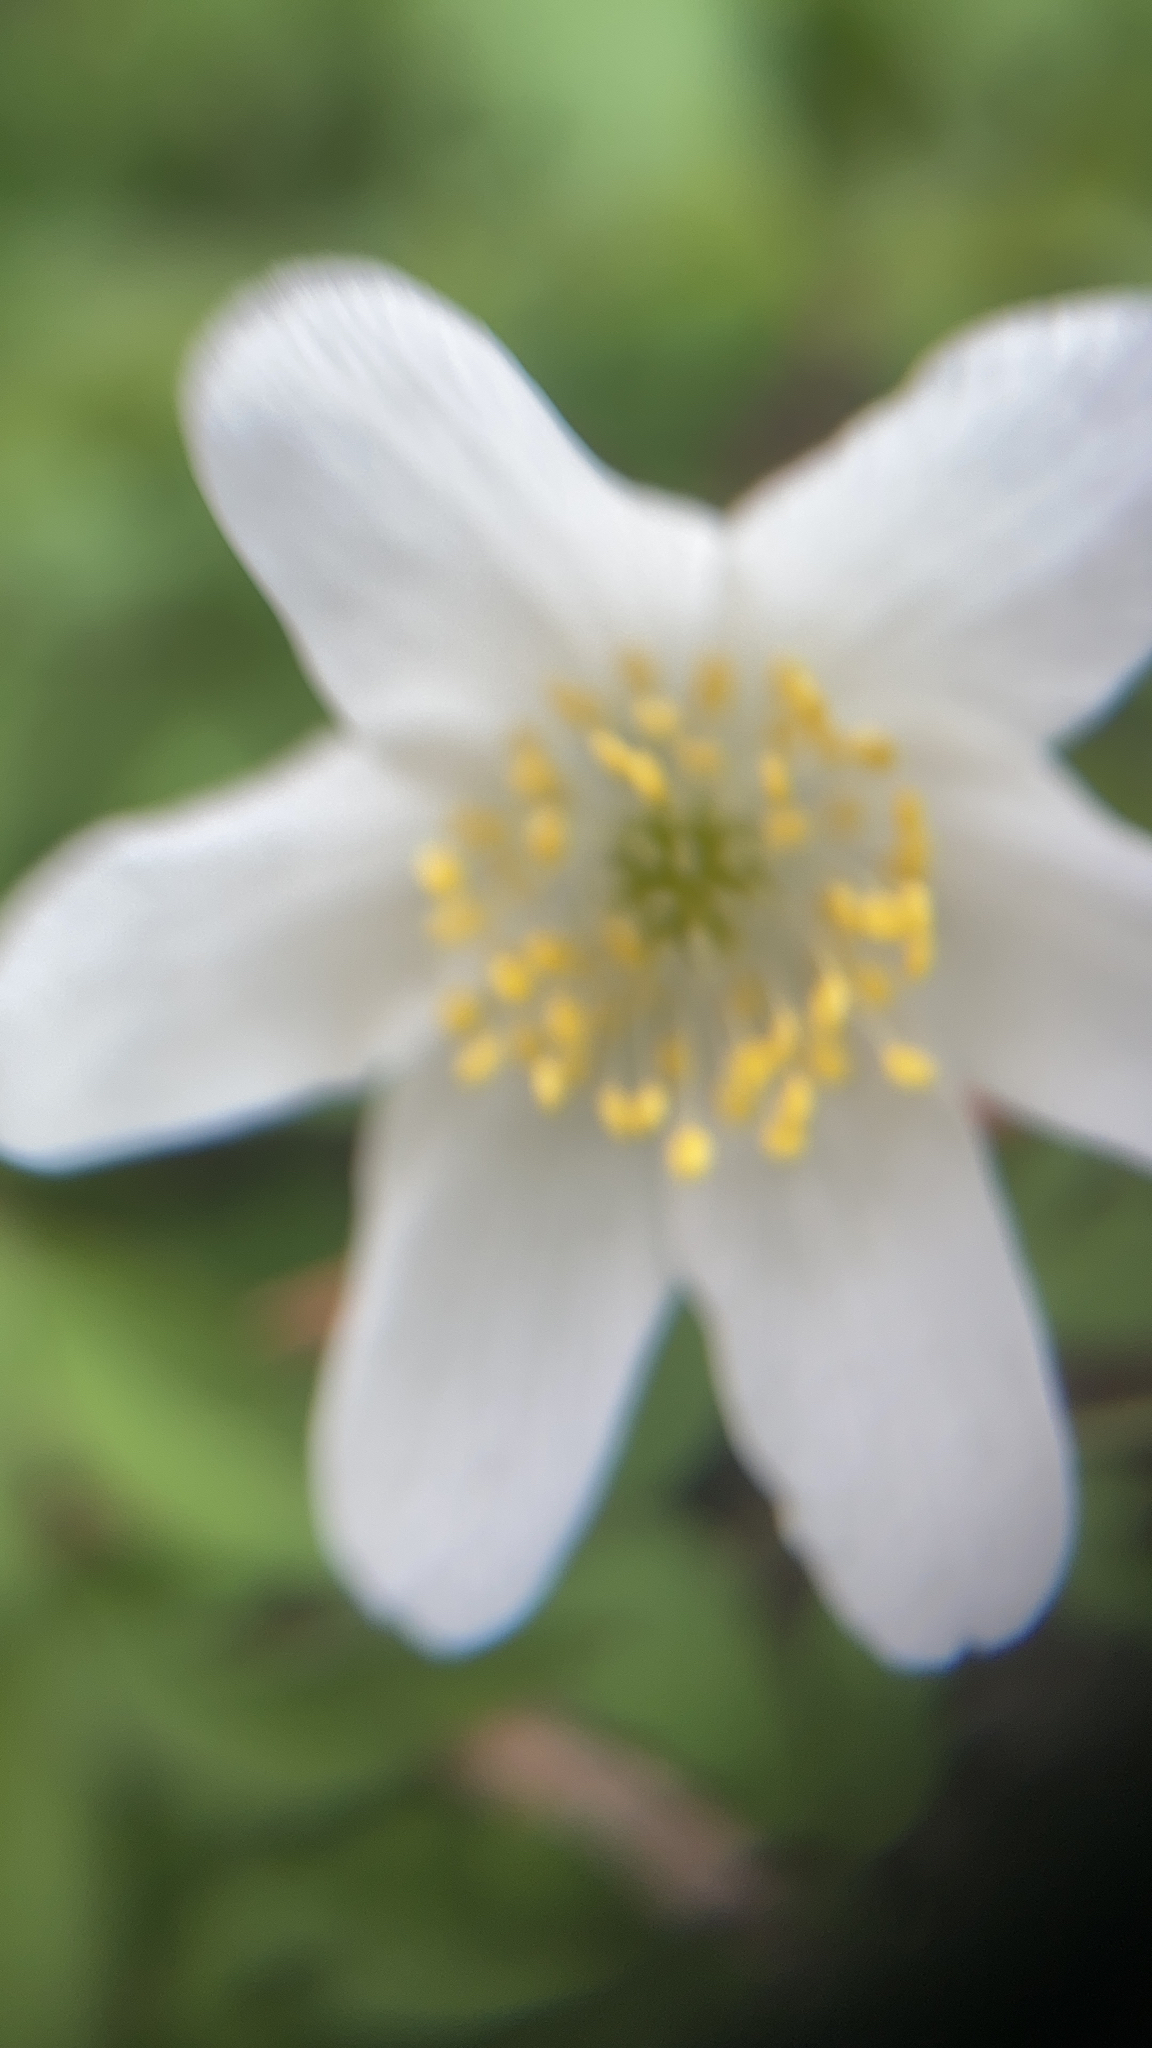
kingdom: Plantae
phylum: Tracheophyta
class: Magnoliopsida
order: Ranunculales
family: Ranunculaceae
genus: Anemone
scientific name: Anemone nemorosa
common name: Wood anemone
